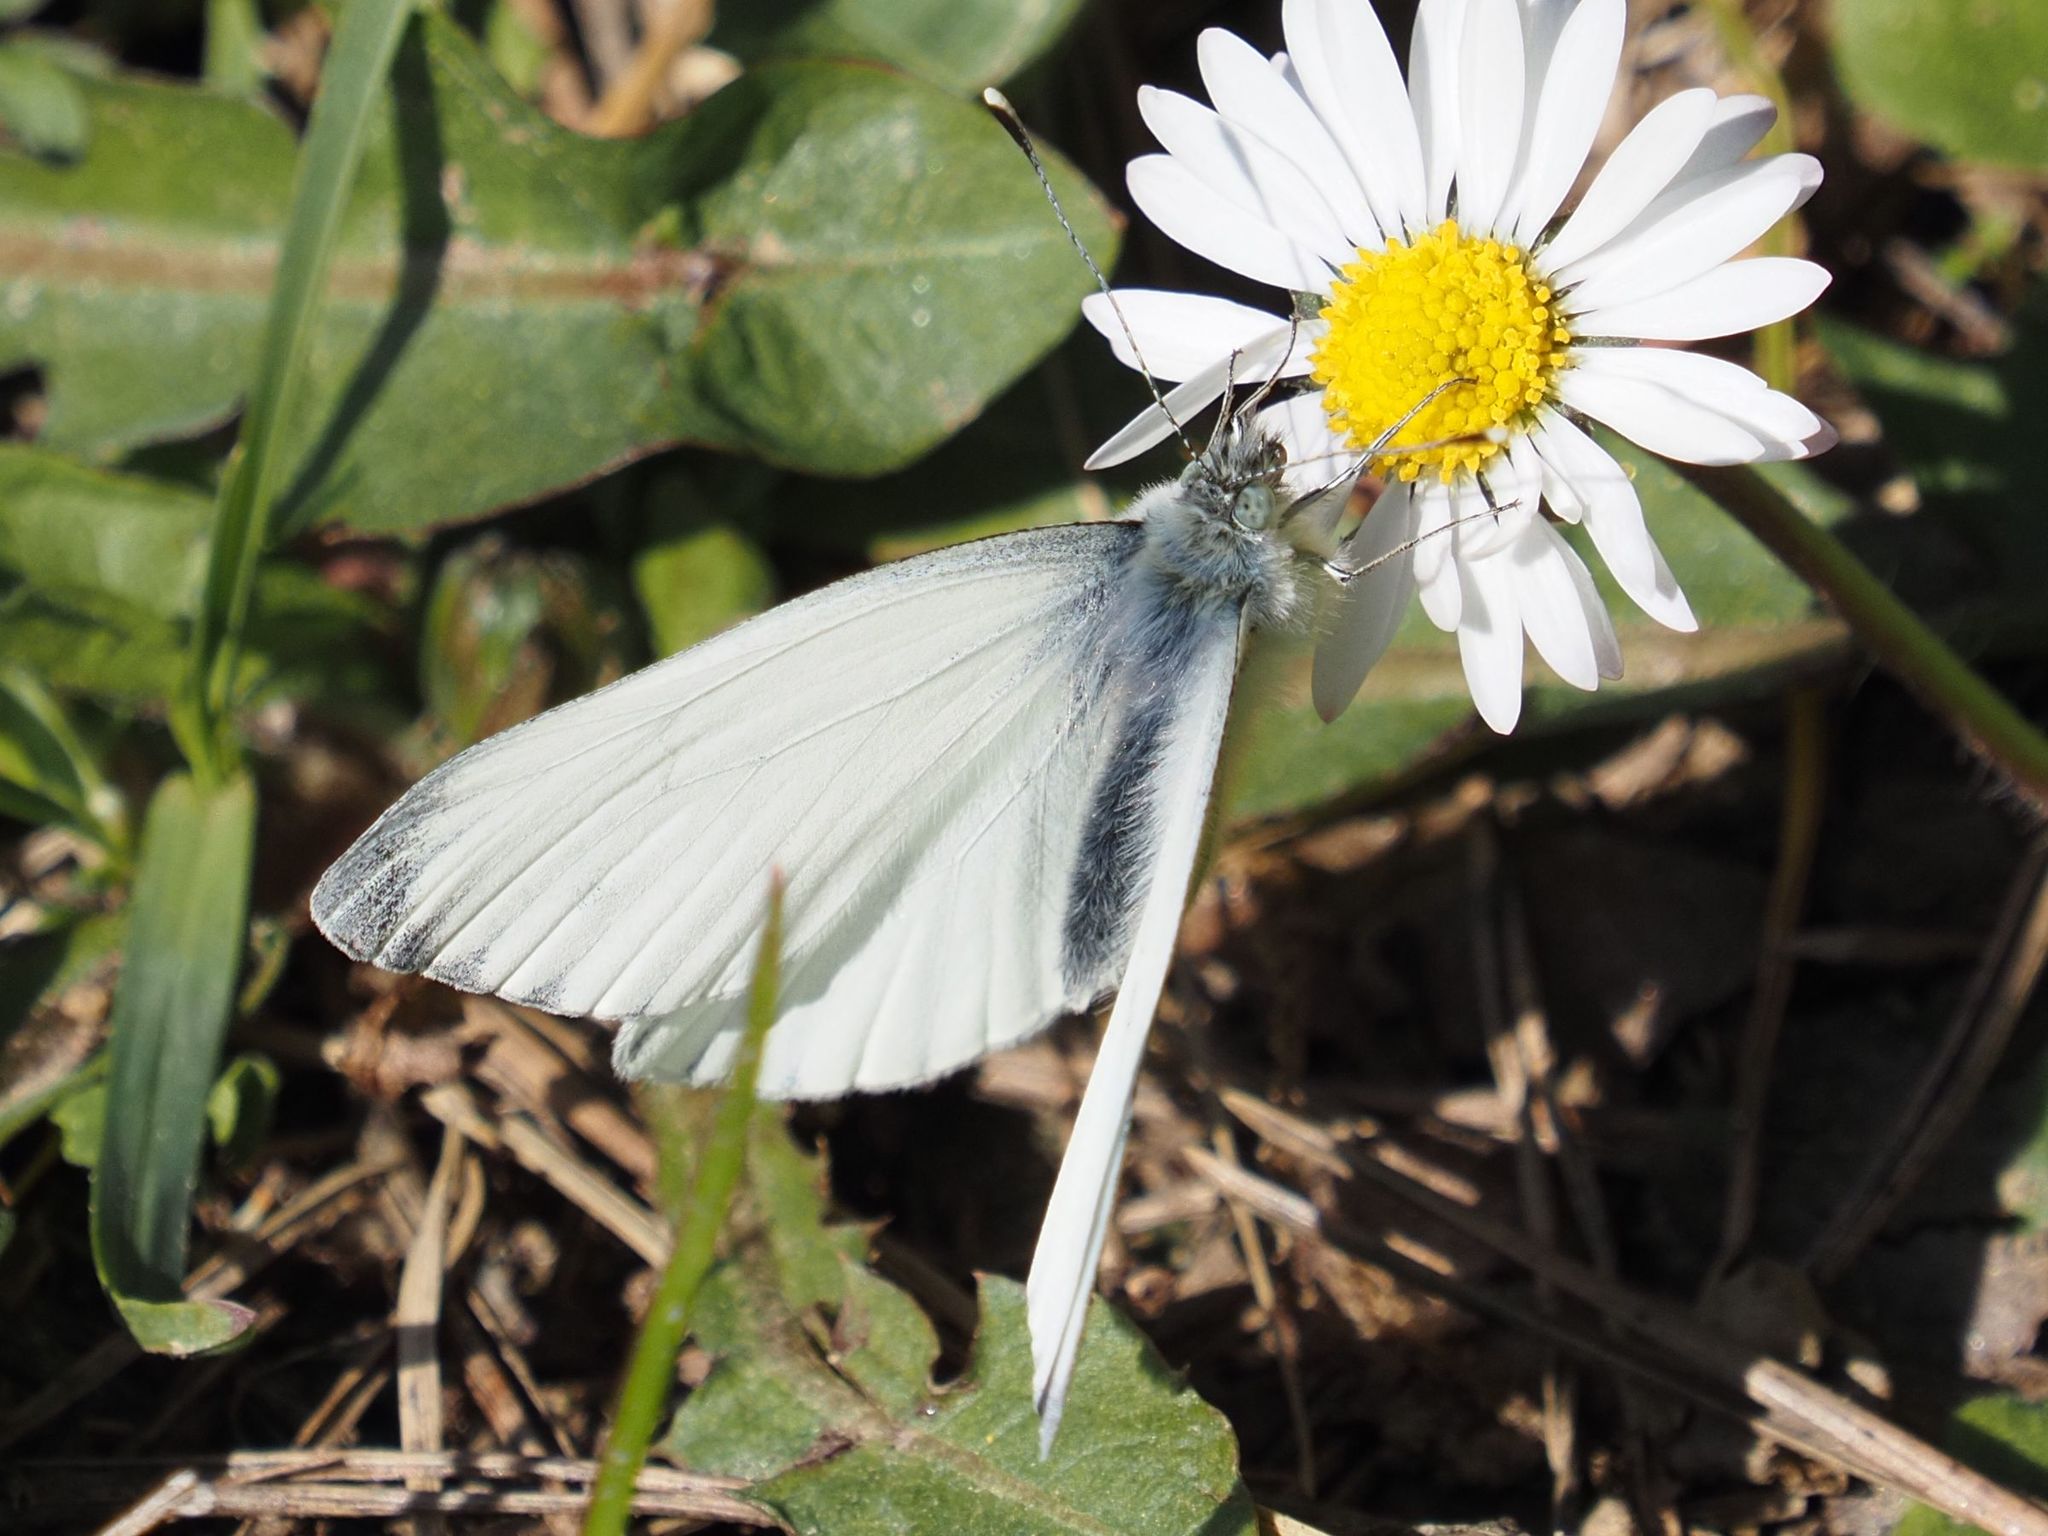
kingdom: Animalia
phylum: Arthropoda
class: Insecta
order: Lepidoptera
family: Pieridae
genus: Pieris
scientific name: Pieris napi
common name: Green-veined white
